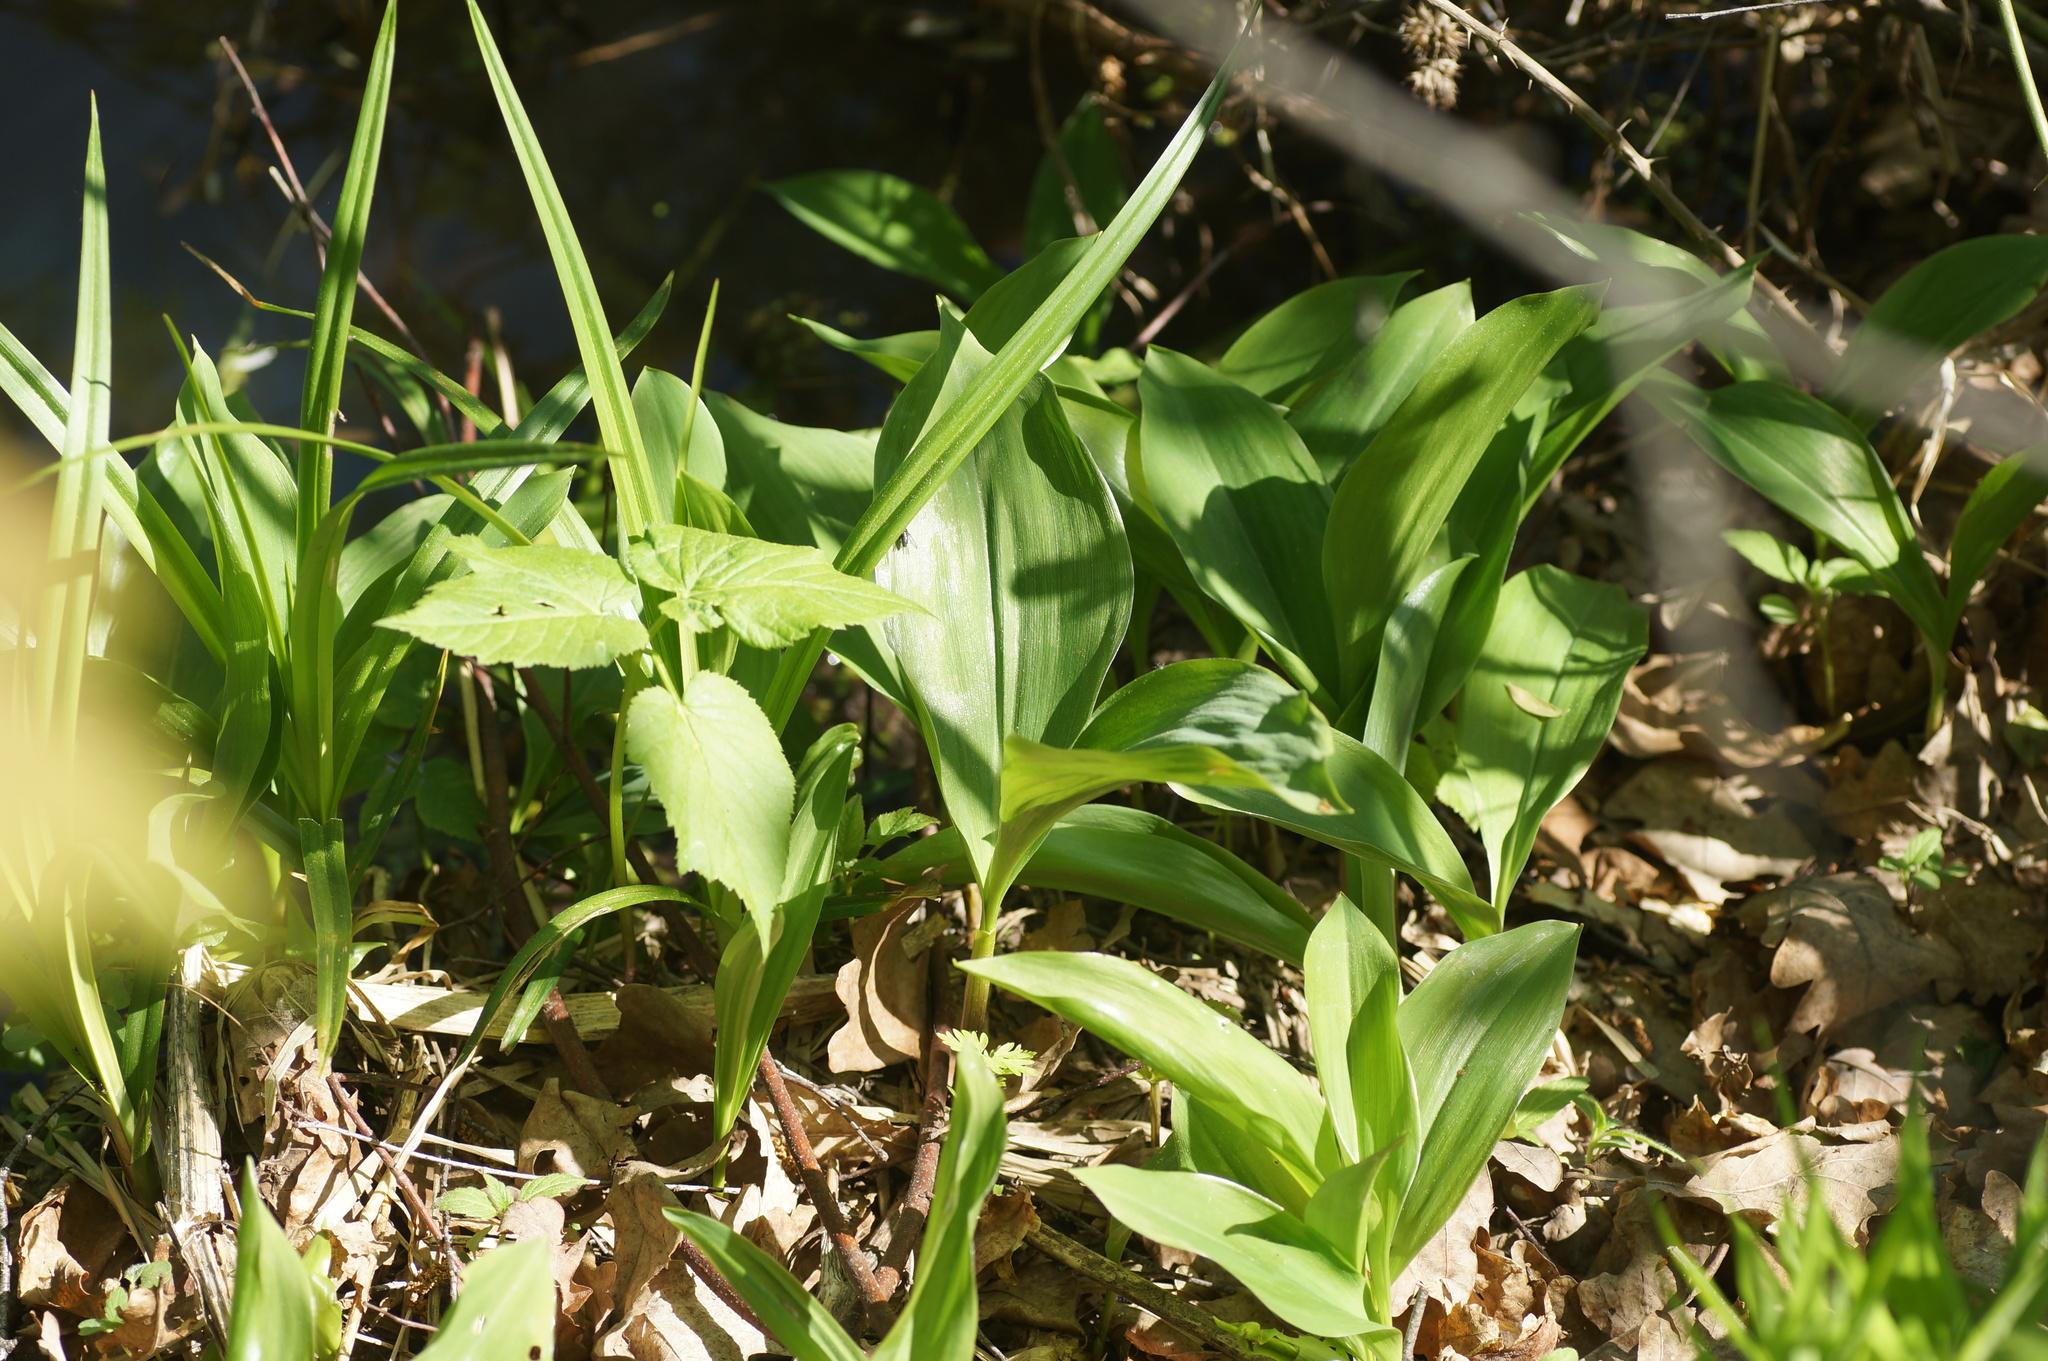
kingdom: Plantae
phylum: Tracheophyta
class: Liliopsida
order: Asparagales
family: Asparagaceae
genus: Convallaria
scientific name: Convallaria majalis
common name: Lily-of-the-valley
